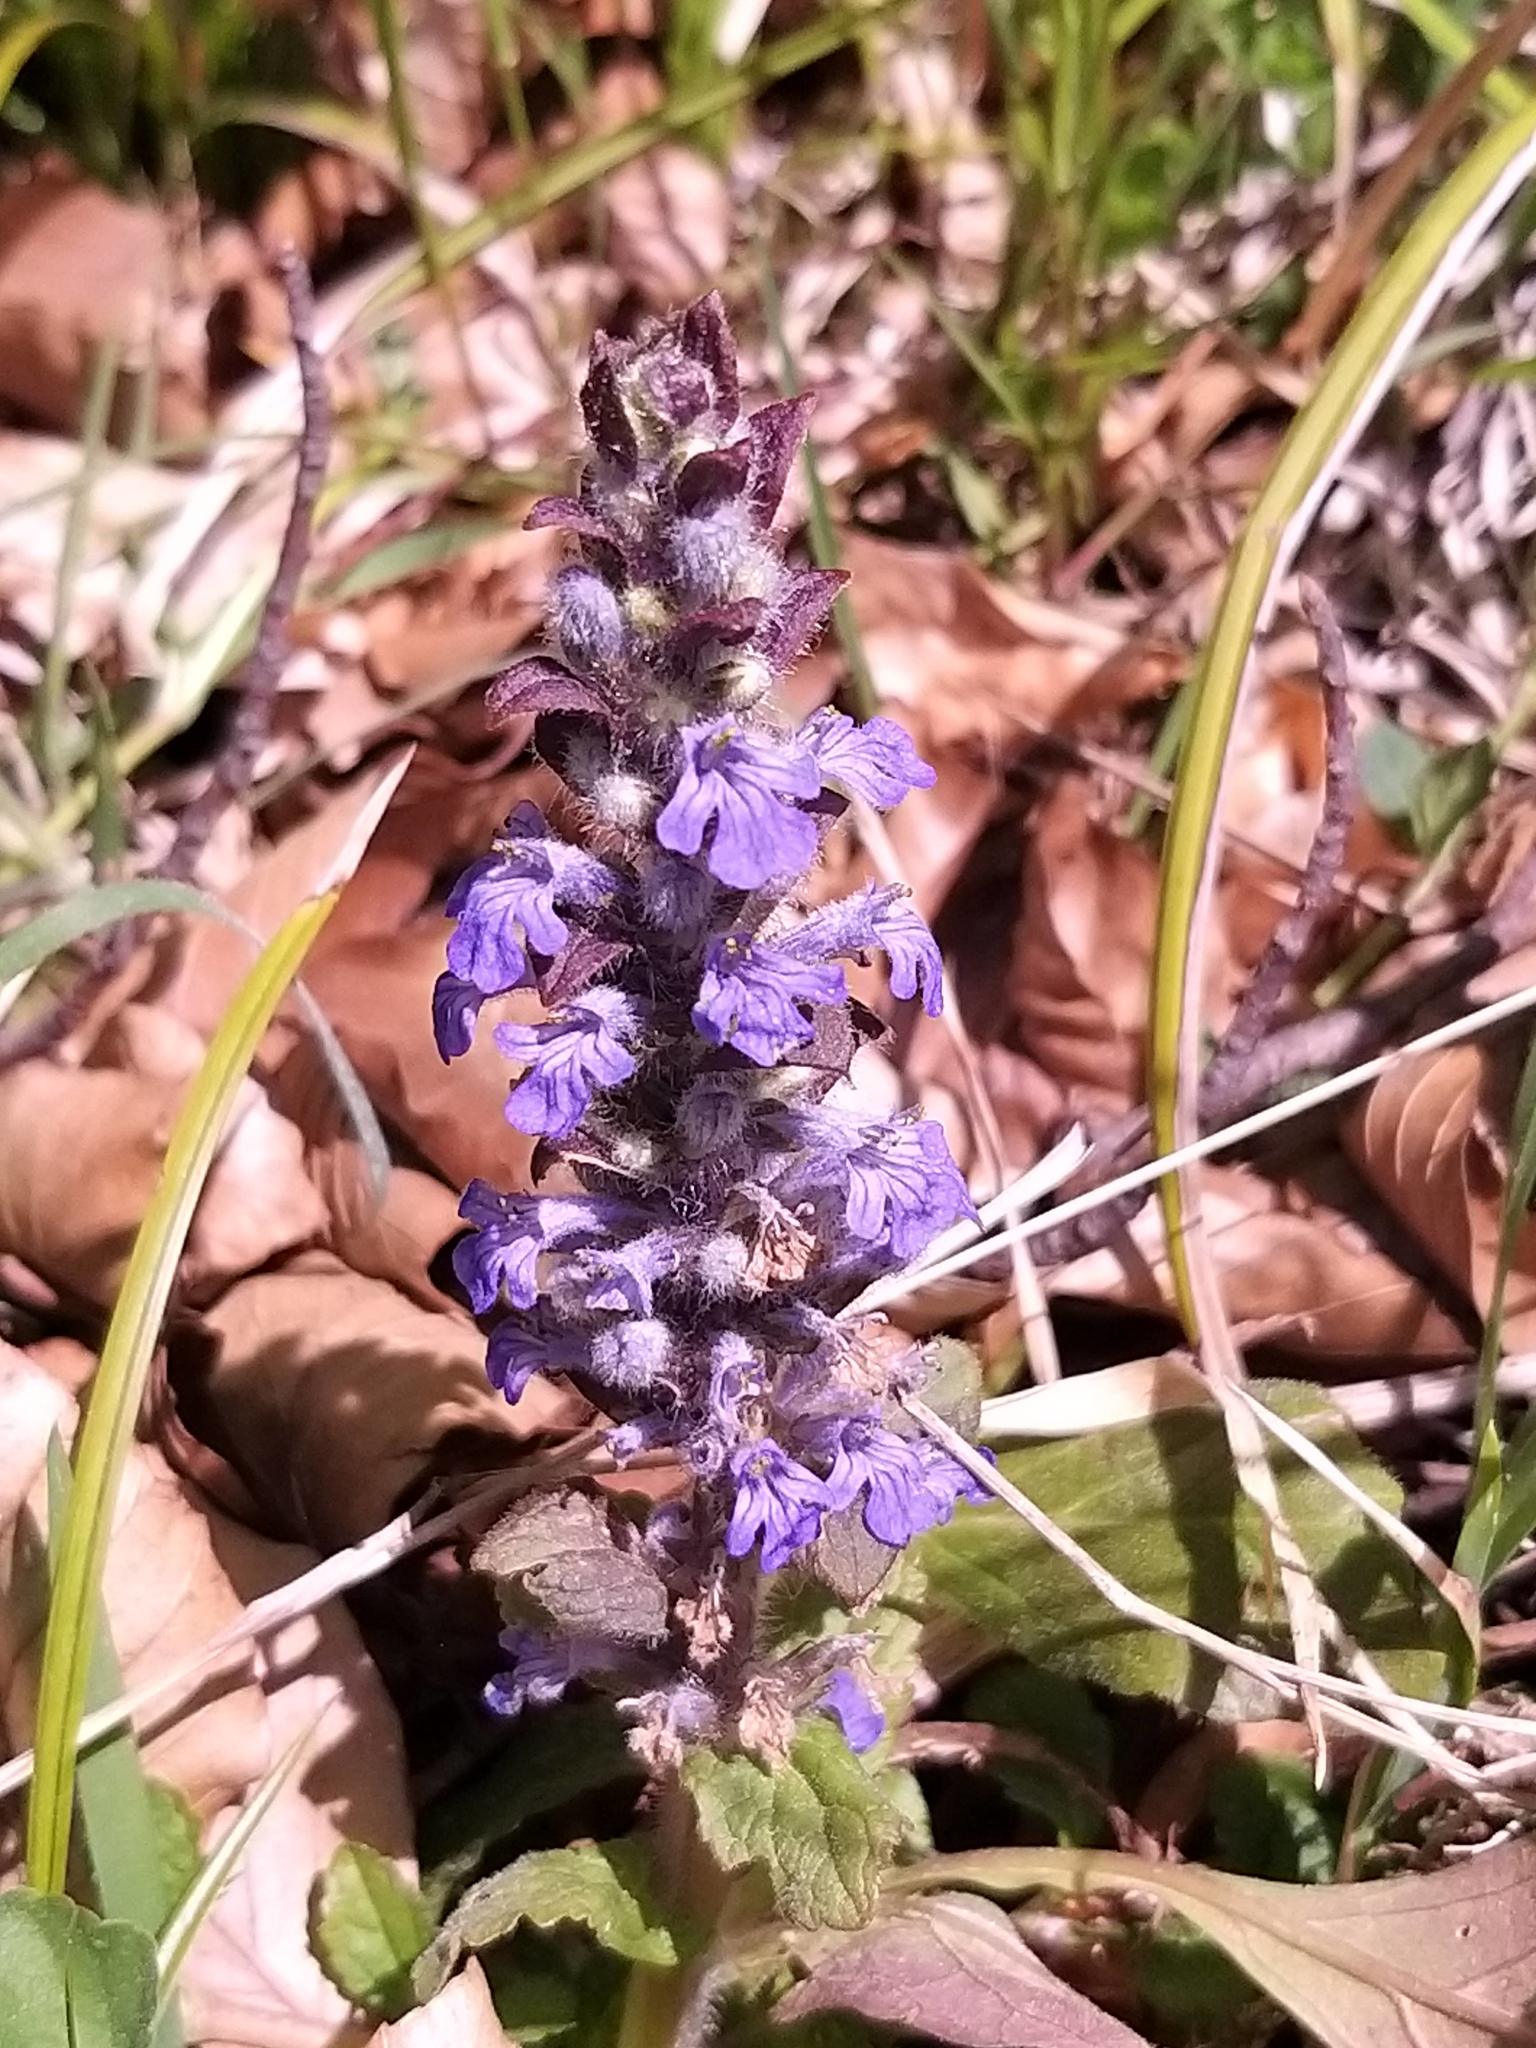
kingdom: Plantae
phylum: Tracheophyta
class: Magnoliopsida
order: Lamiales
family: Lamiaceae
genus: Ajuga
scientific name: Ajuga reptans
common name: Bugle
